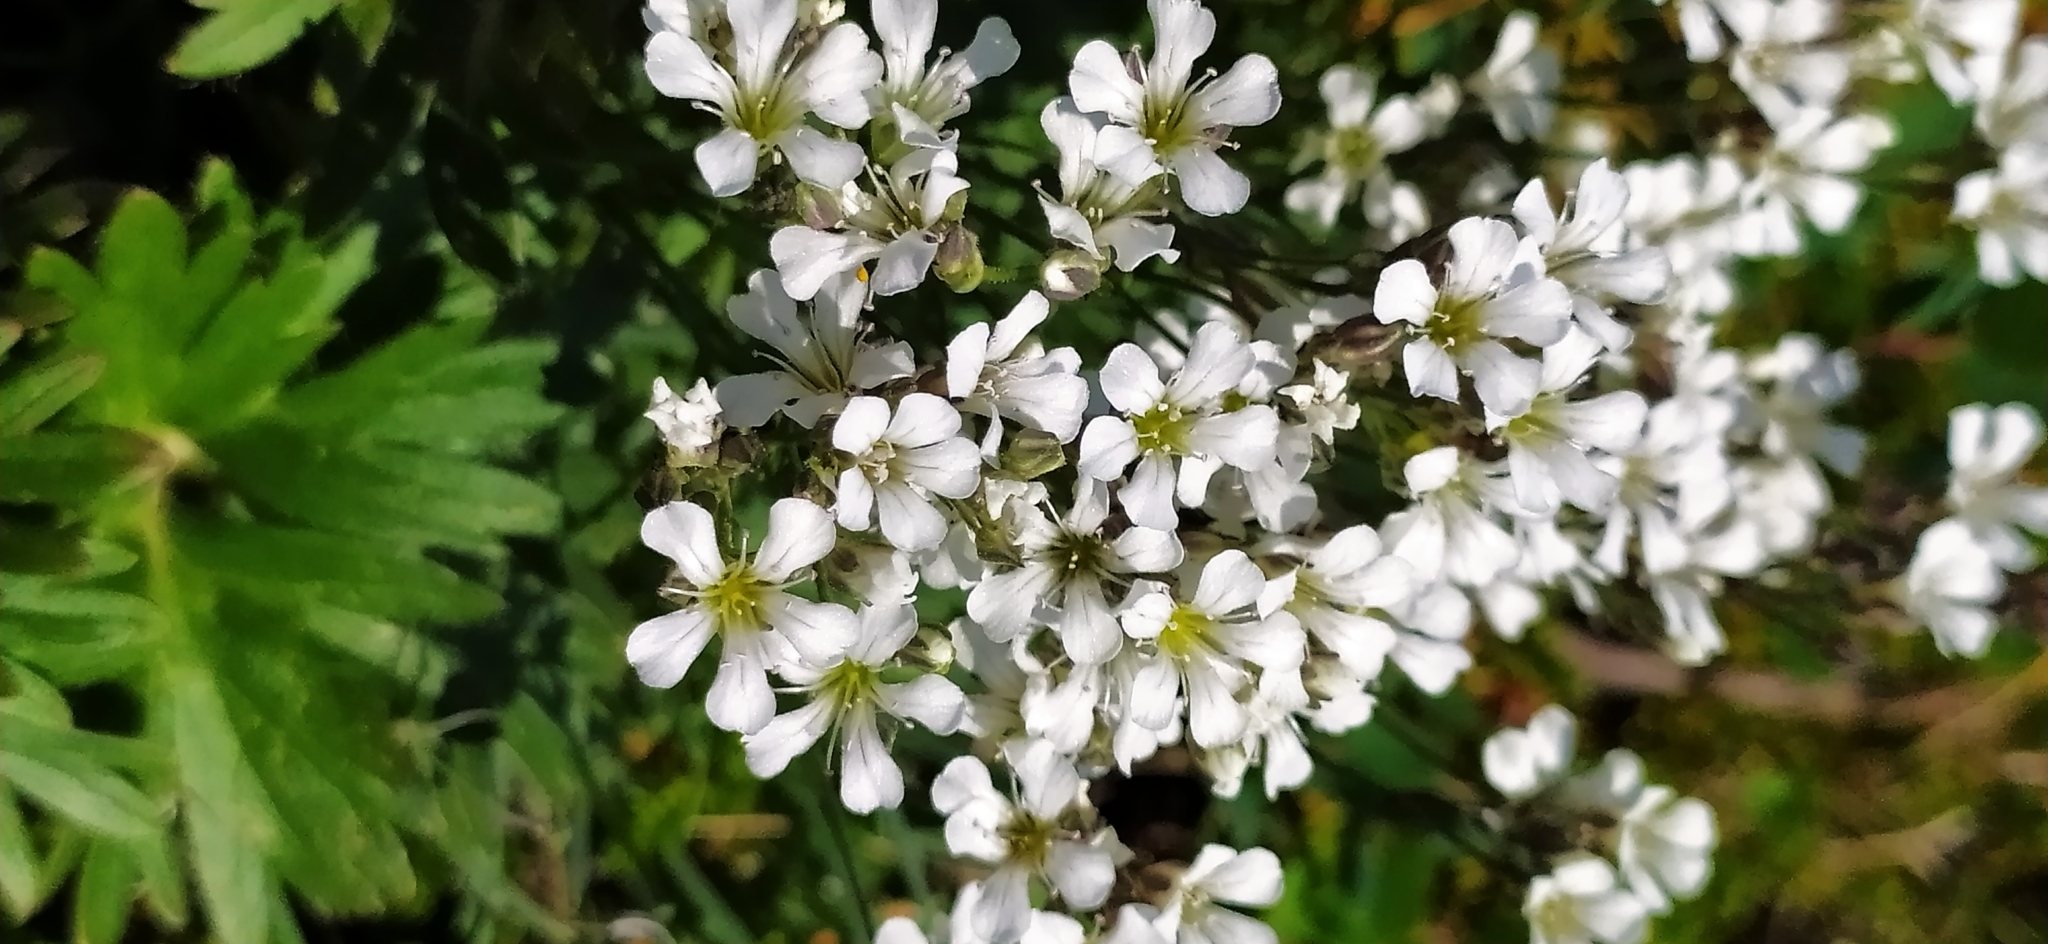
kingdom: Plantae
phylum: Tracheophyta
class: Magnoliopsida
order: Caryophyllales
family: Caryophyllaceae
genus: Gypsophila
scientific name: Gypsophila uralensis
